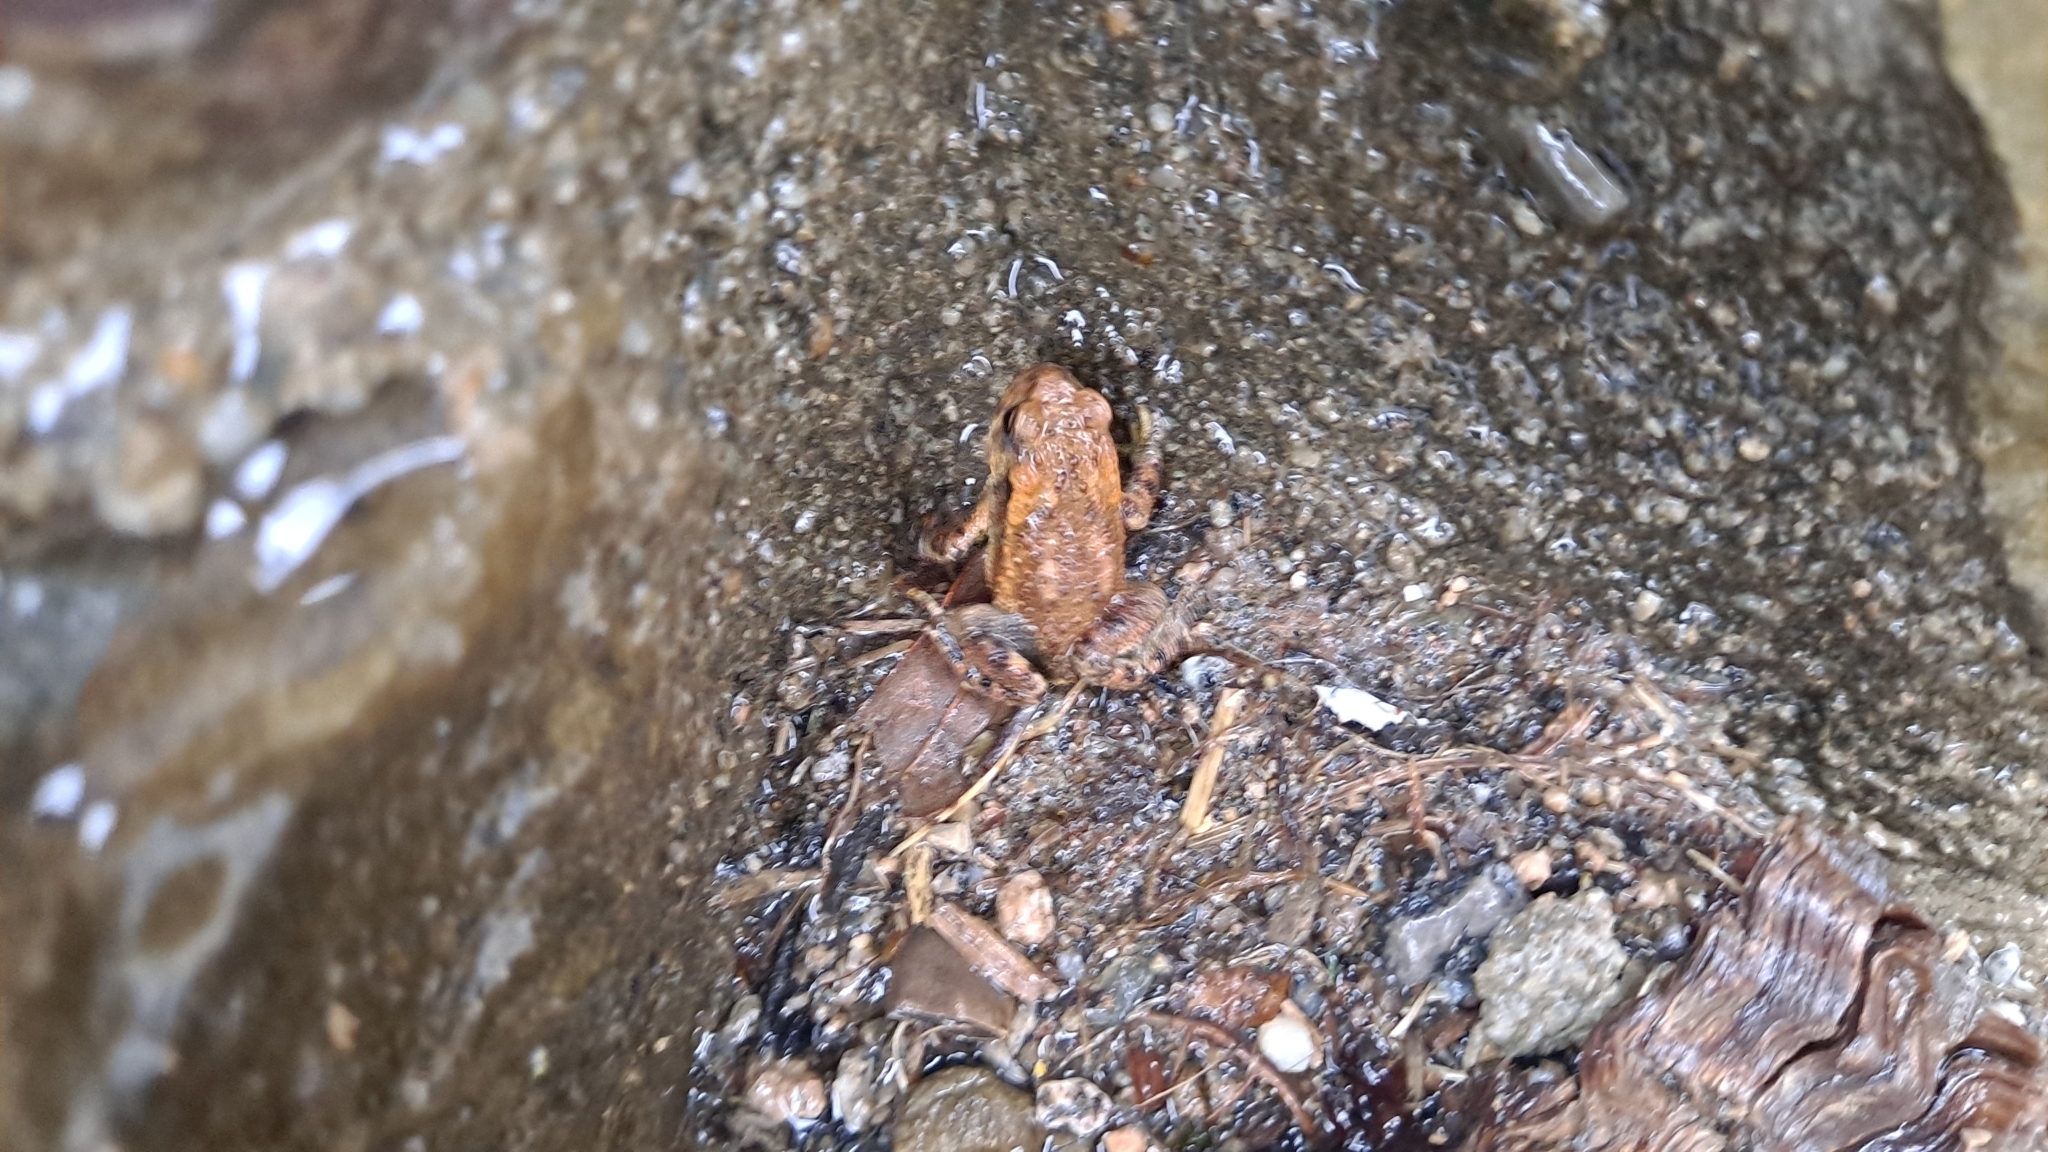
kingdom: Animalia
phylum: Chordata
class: Amphibia
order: Anura
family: Bufonidae
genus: Bufo
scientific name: Bufo spinosus
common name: Western common toad
